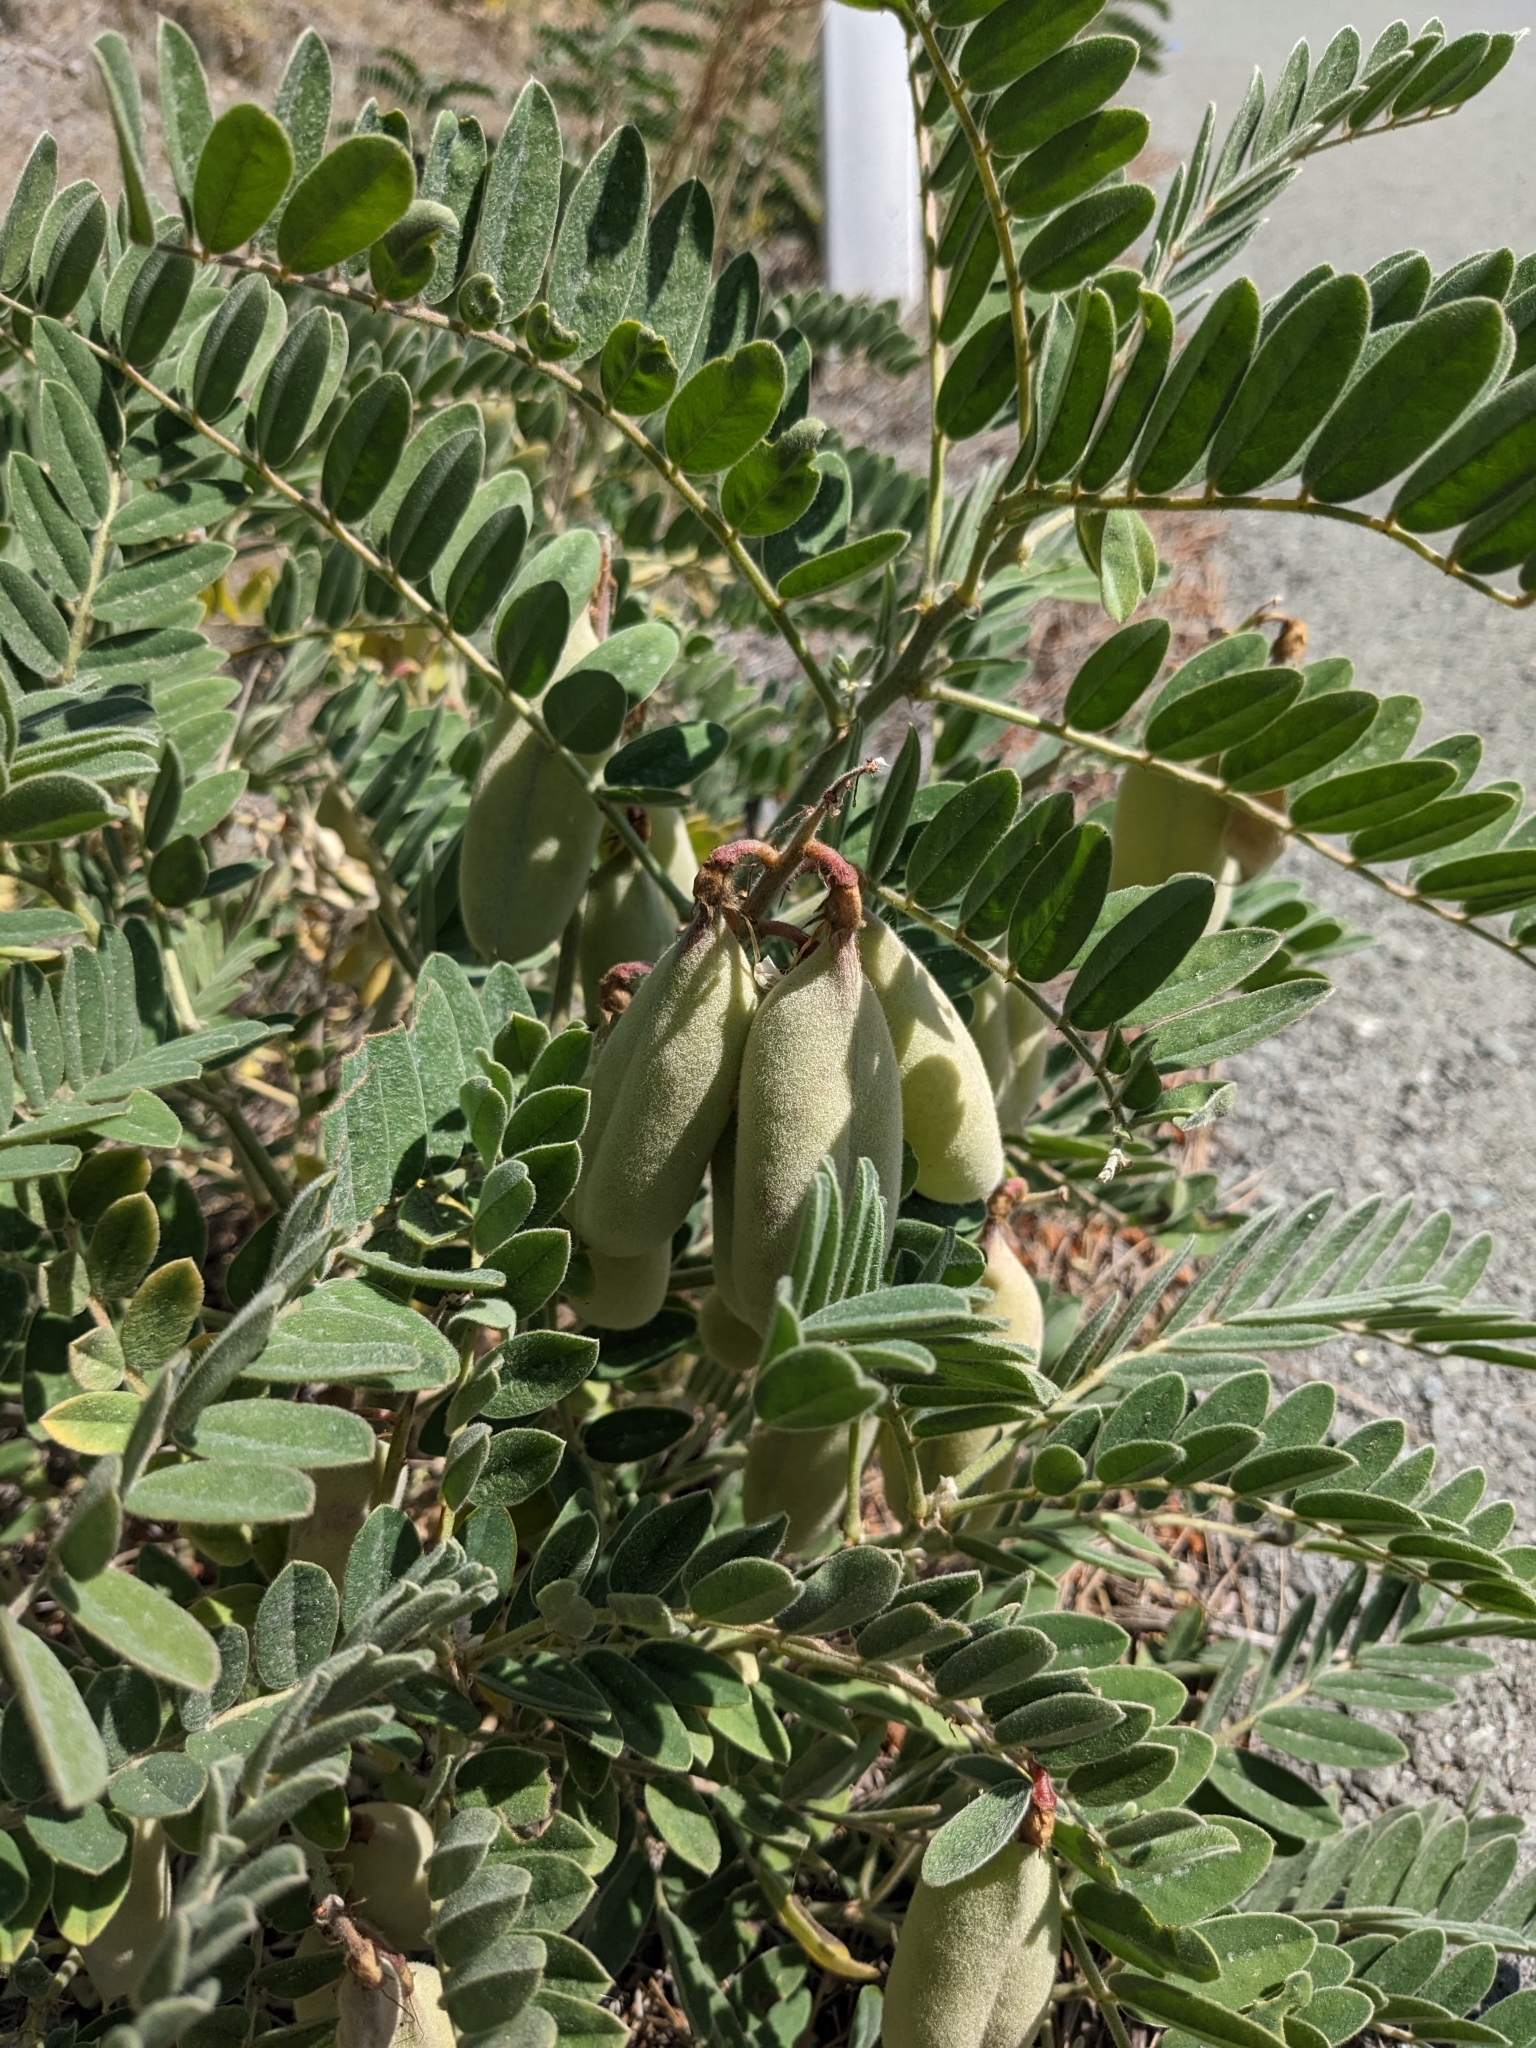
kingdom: Plantae
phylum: Tracheophyta
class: Magnoliopsida
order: Fabales
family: Fabaceae
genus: Erophaca
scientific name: Erophaca baetica
